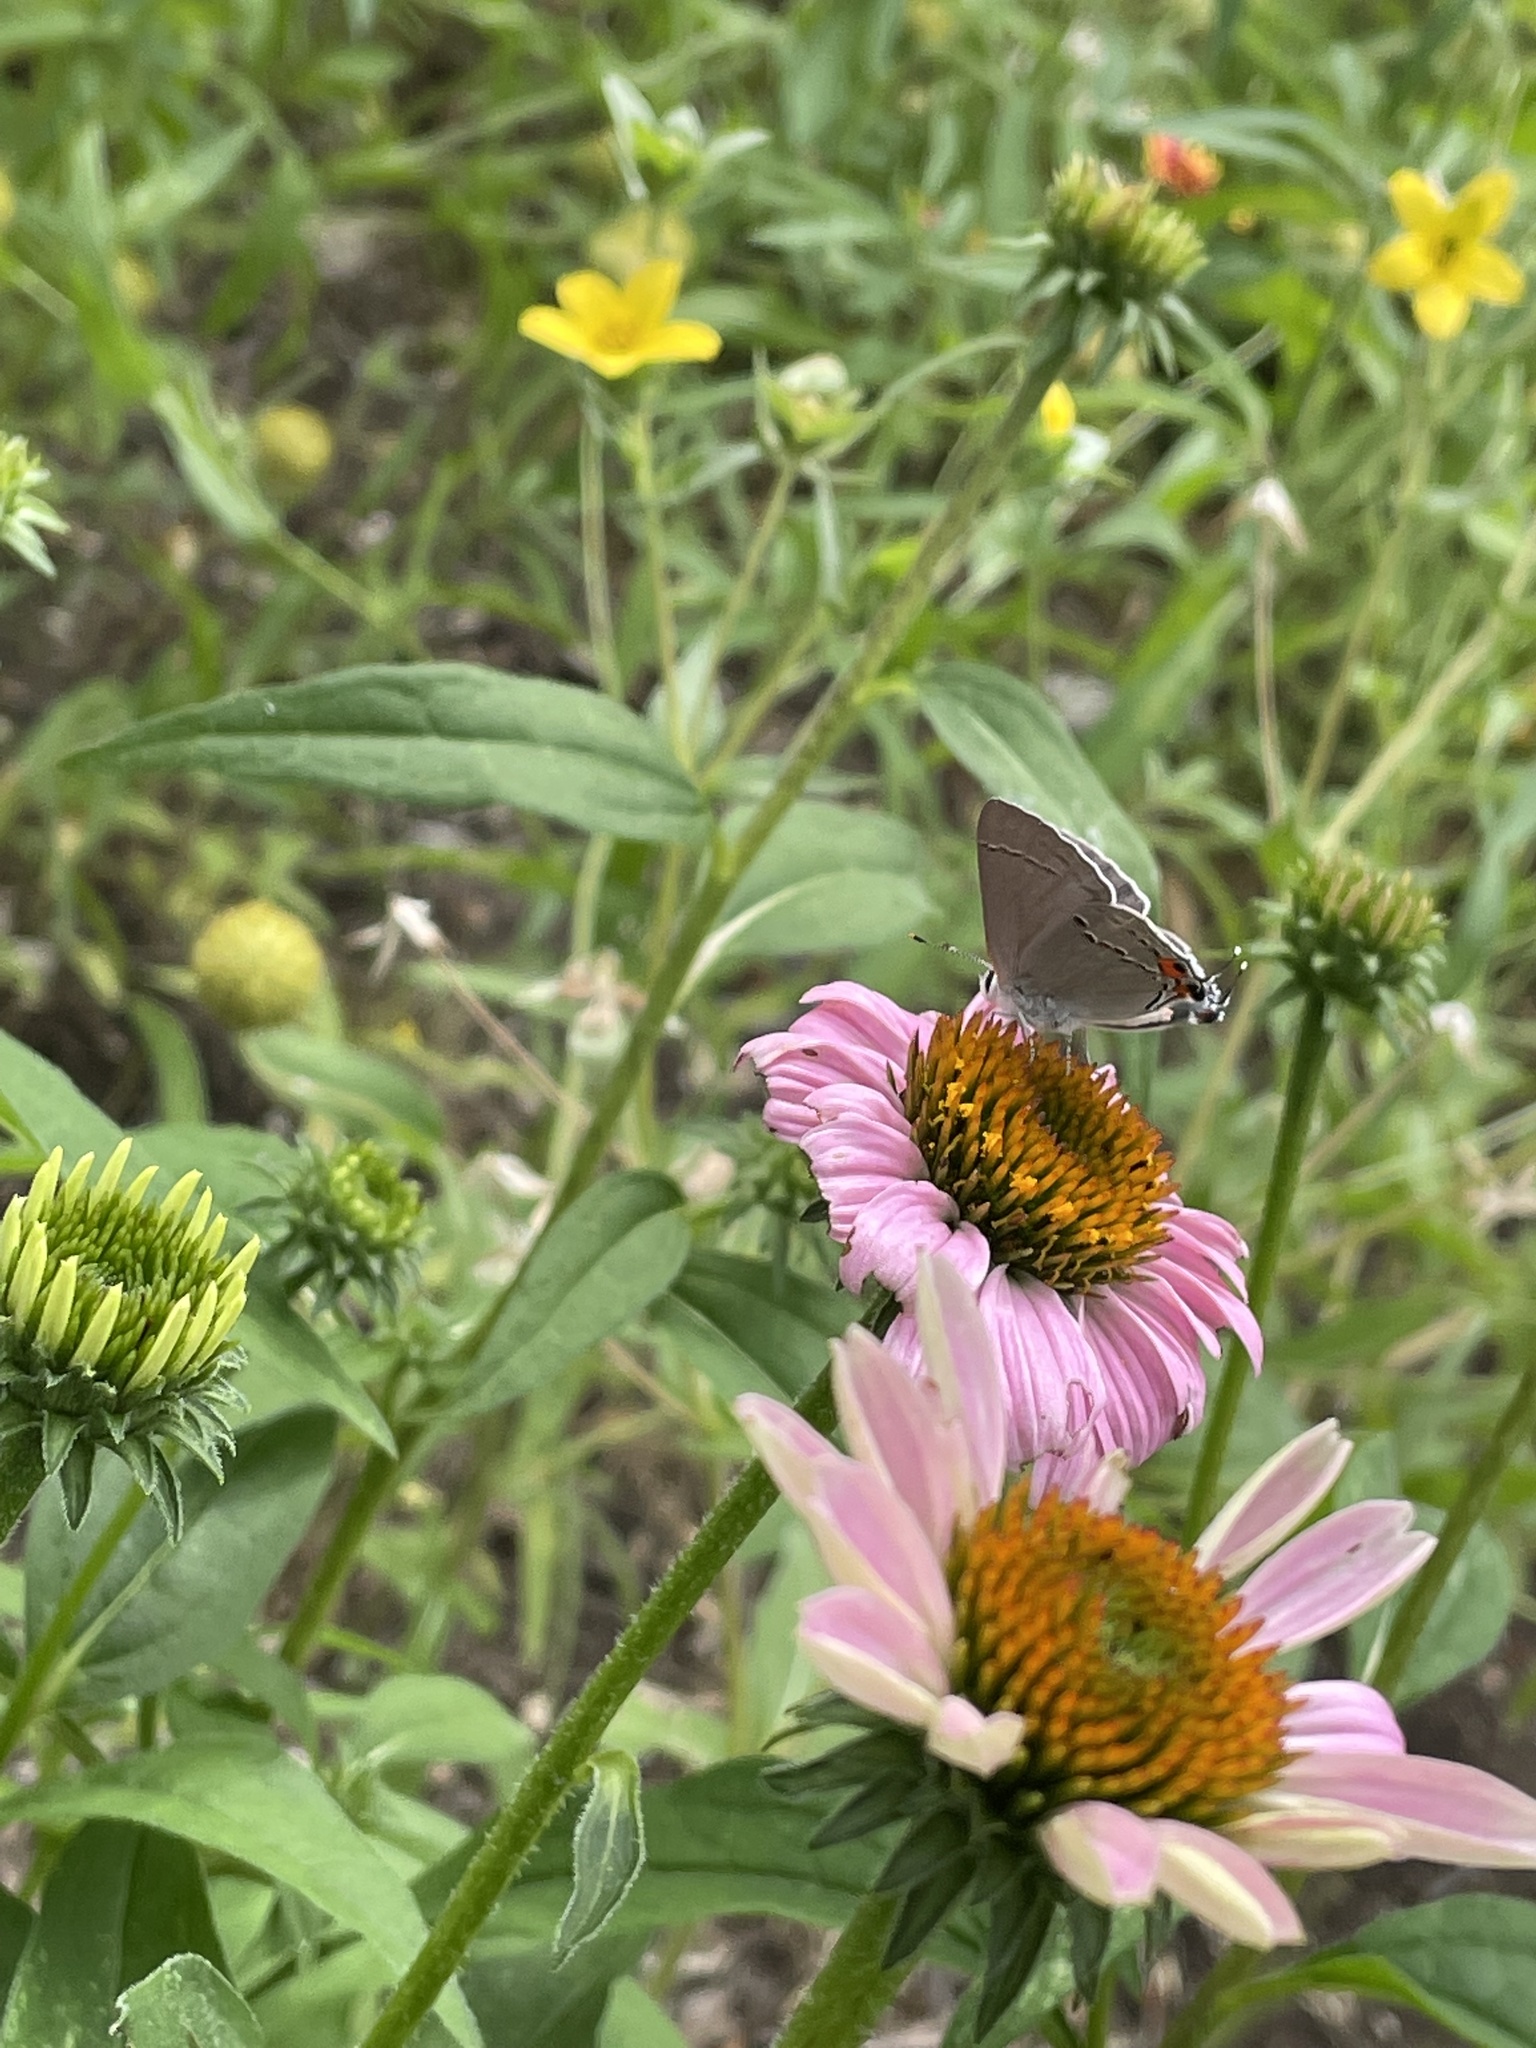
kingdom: Animalia
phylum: Arthropoda
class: Insecta
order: Lepidoptera
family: Lycaenidae
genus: Strymon
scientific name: Strymon melinus
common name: Gray hairstreak
